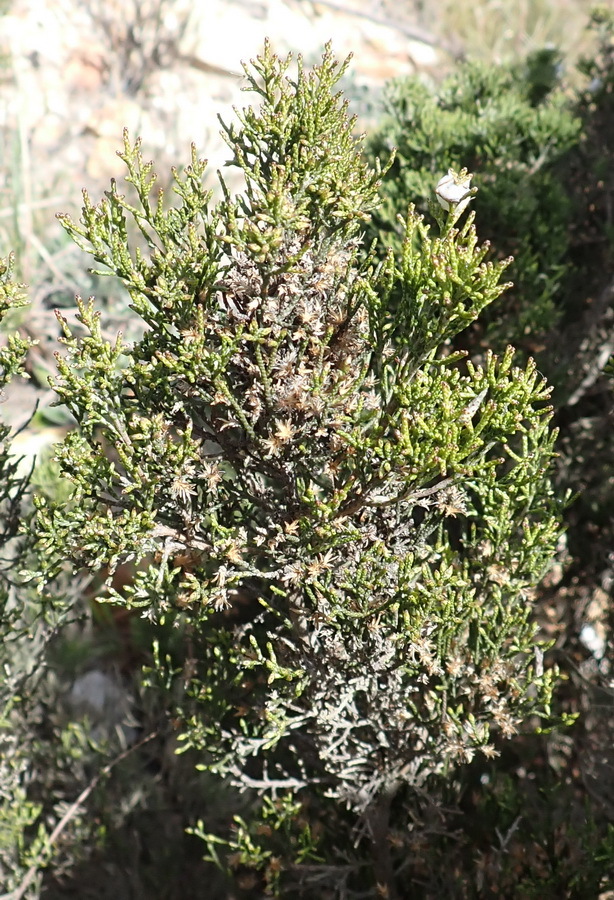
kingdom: Plantae
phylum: Tracheophyta
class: Magnoliopsida
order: Asterales
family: Asteraceae
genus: Dicerothamnus
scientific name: Dicerothamnus rhinocerotis
